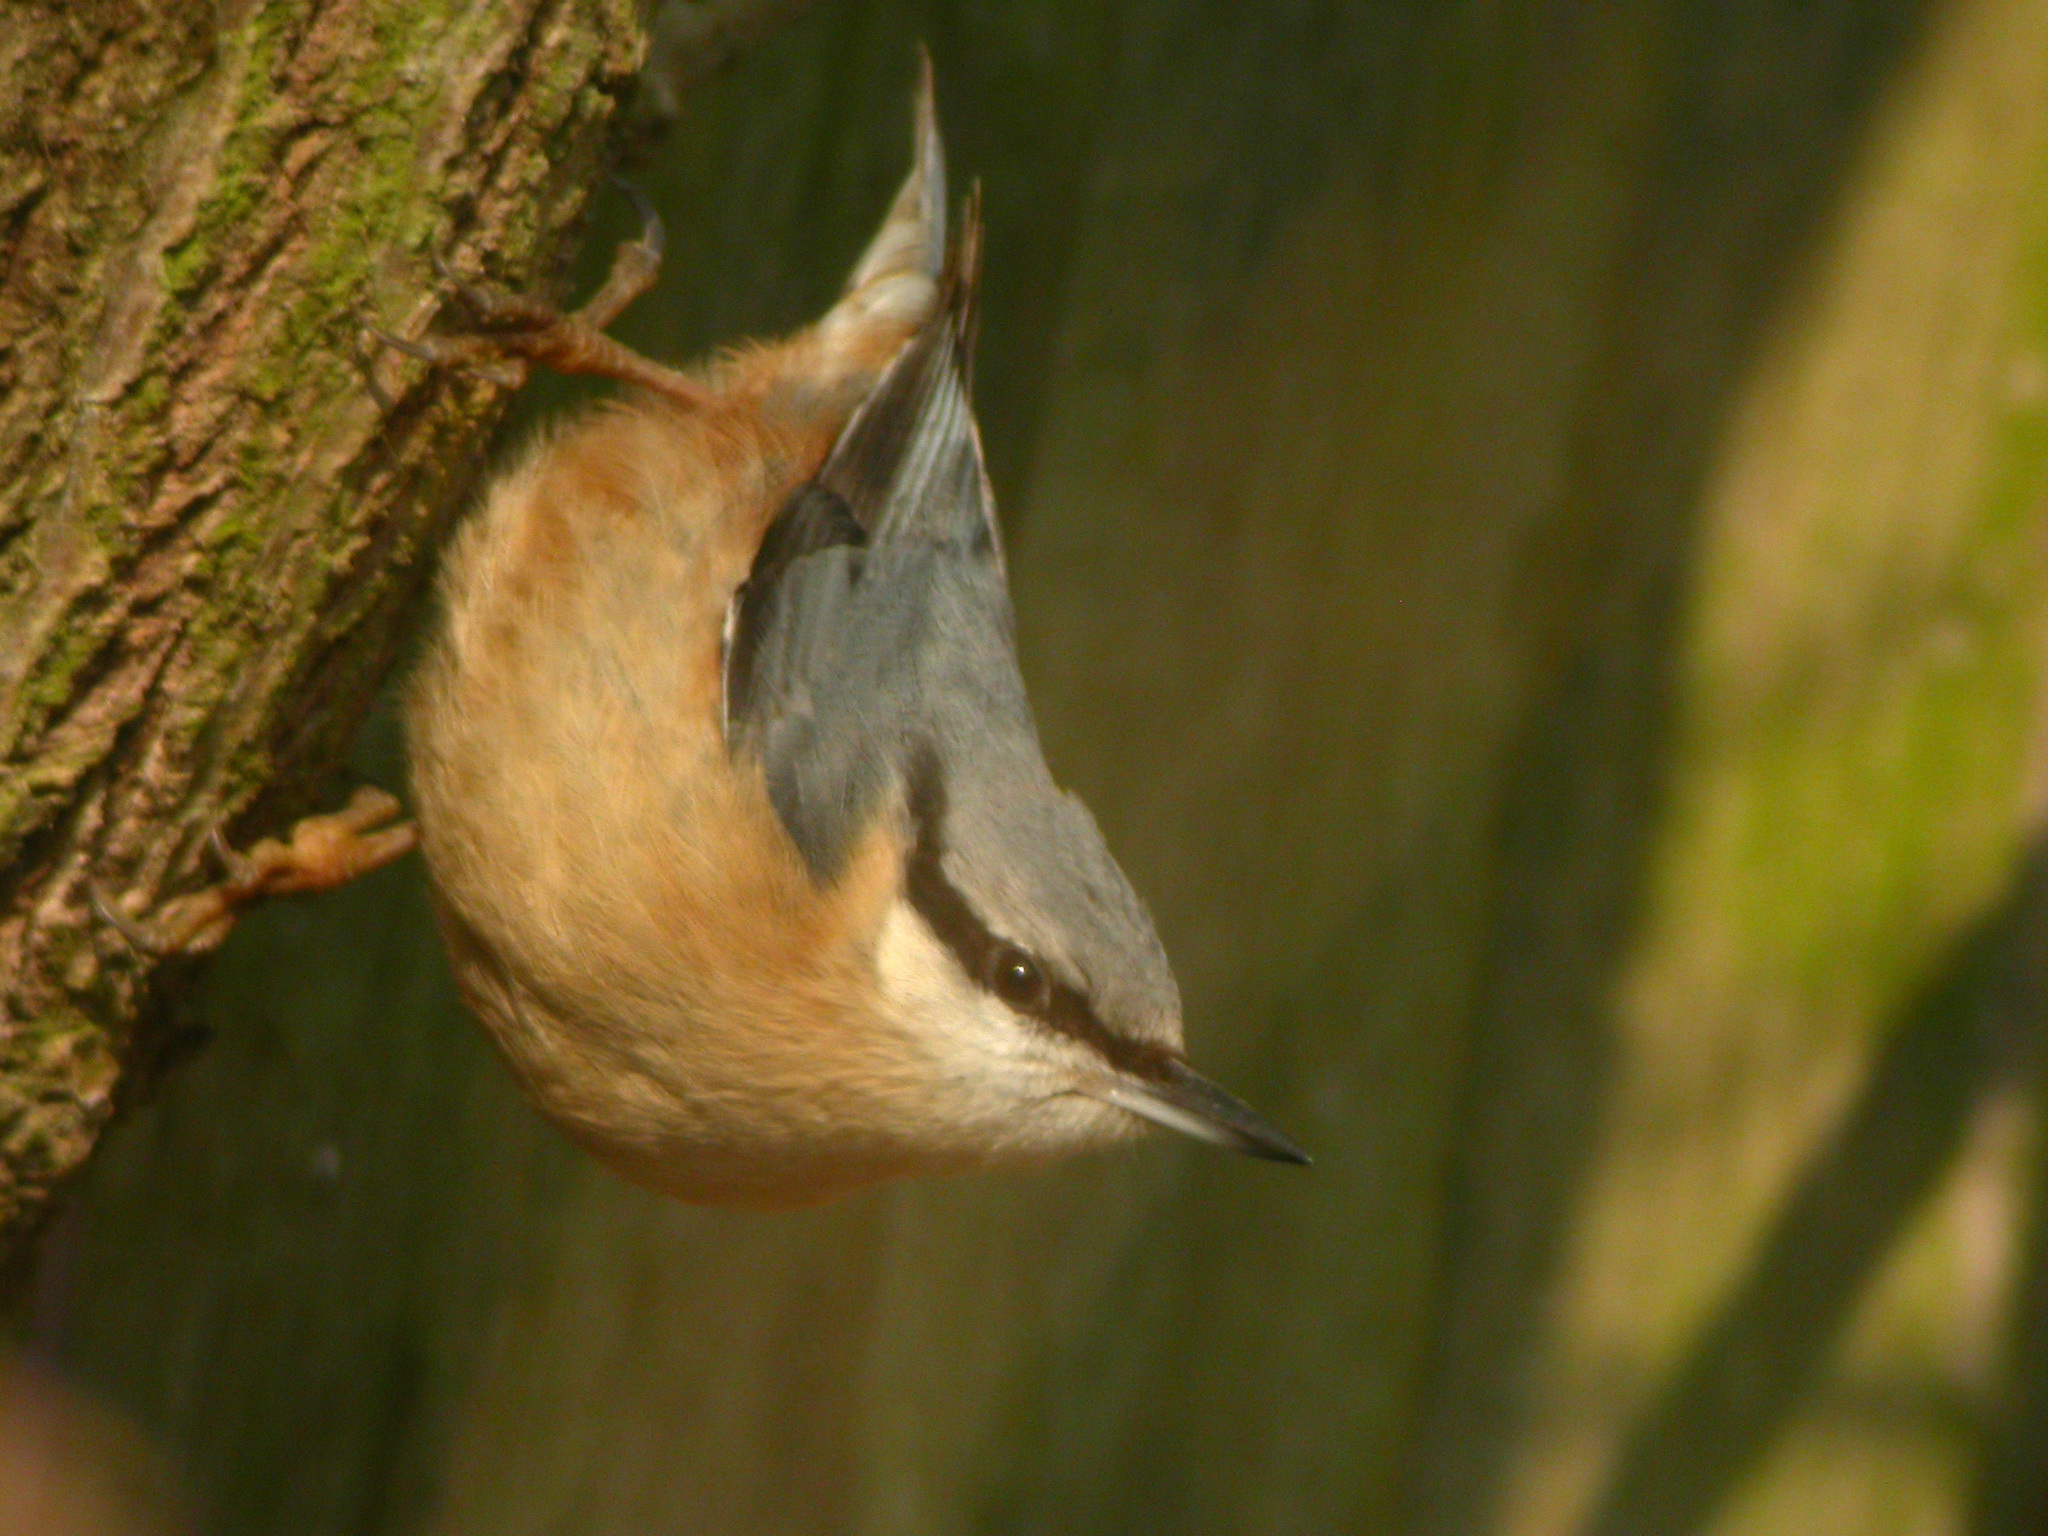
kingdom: Animalia
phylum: Chordata
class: Aves
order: Passeriformes
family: Sittidae
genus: Sitta
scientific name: Sitta europaea
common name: Eurasian nuthatch
